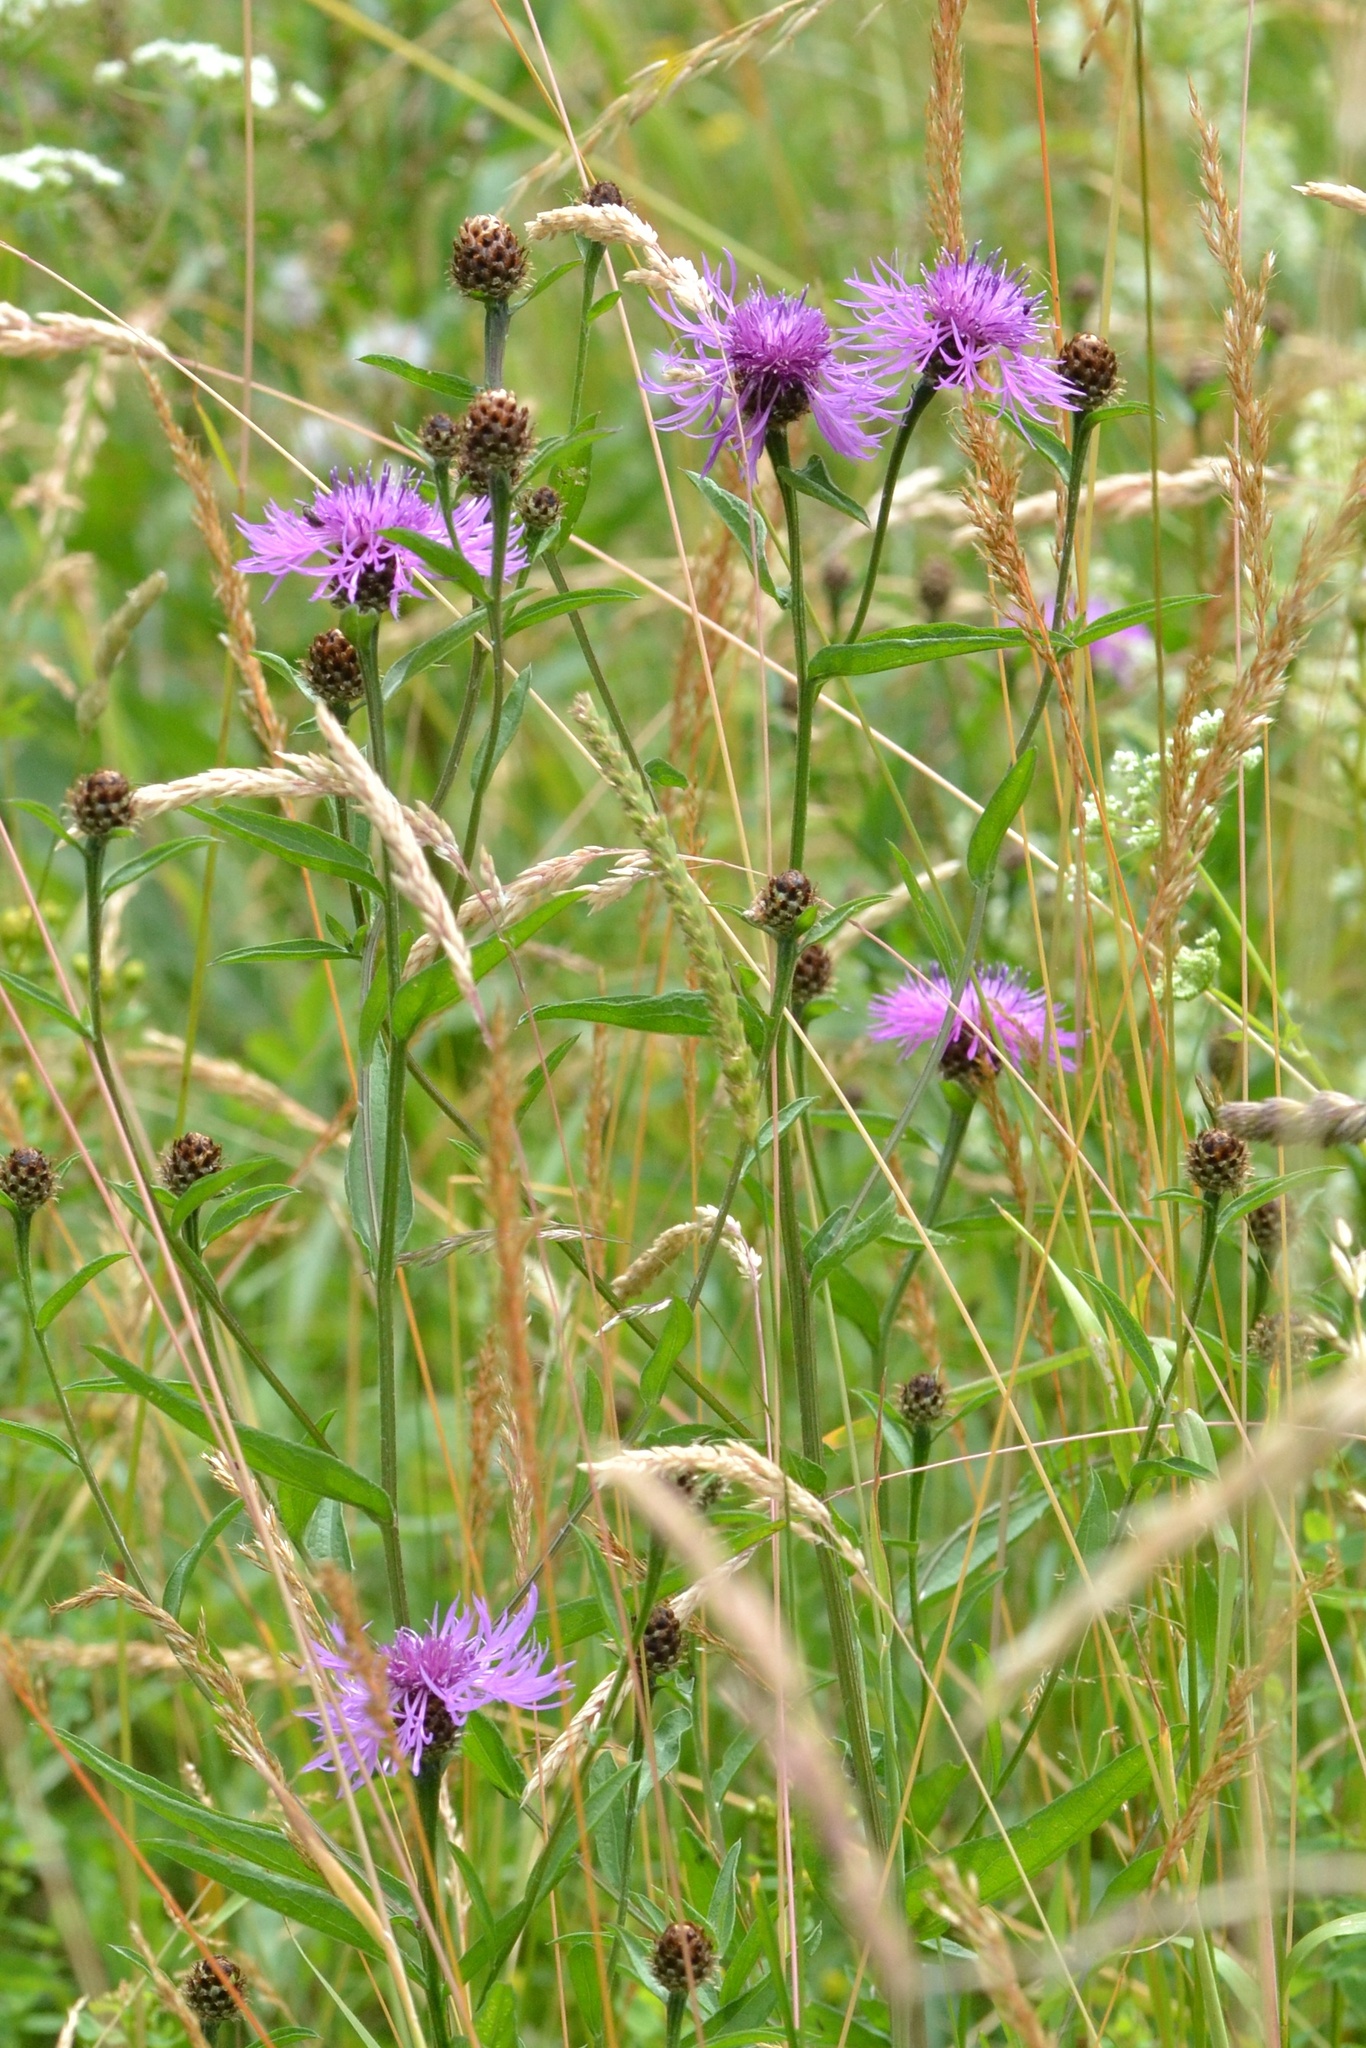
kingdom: Plantae
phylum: Tracheophyta
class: Magnoliopsida
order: Asterales
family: Asteraceae
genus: Centaurea
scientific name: Centaurea fleischeri
